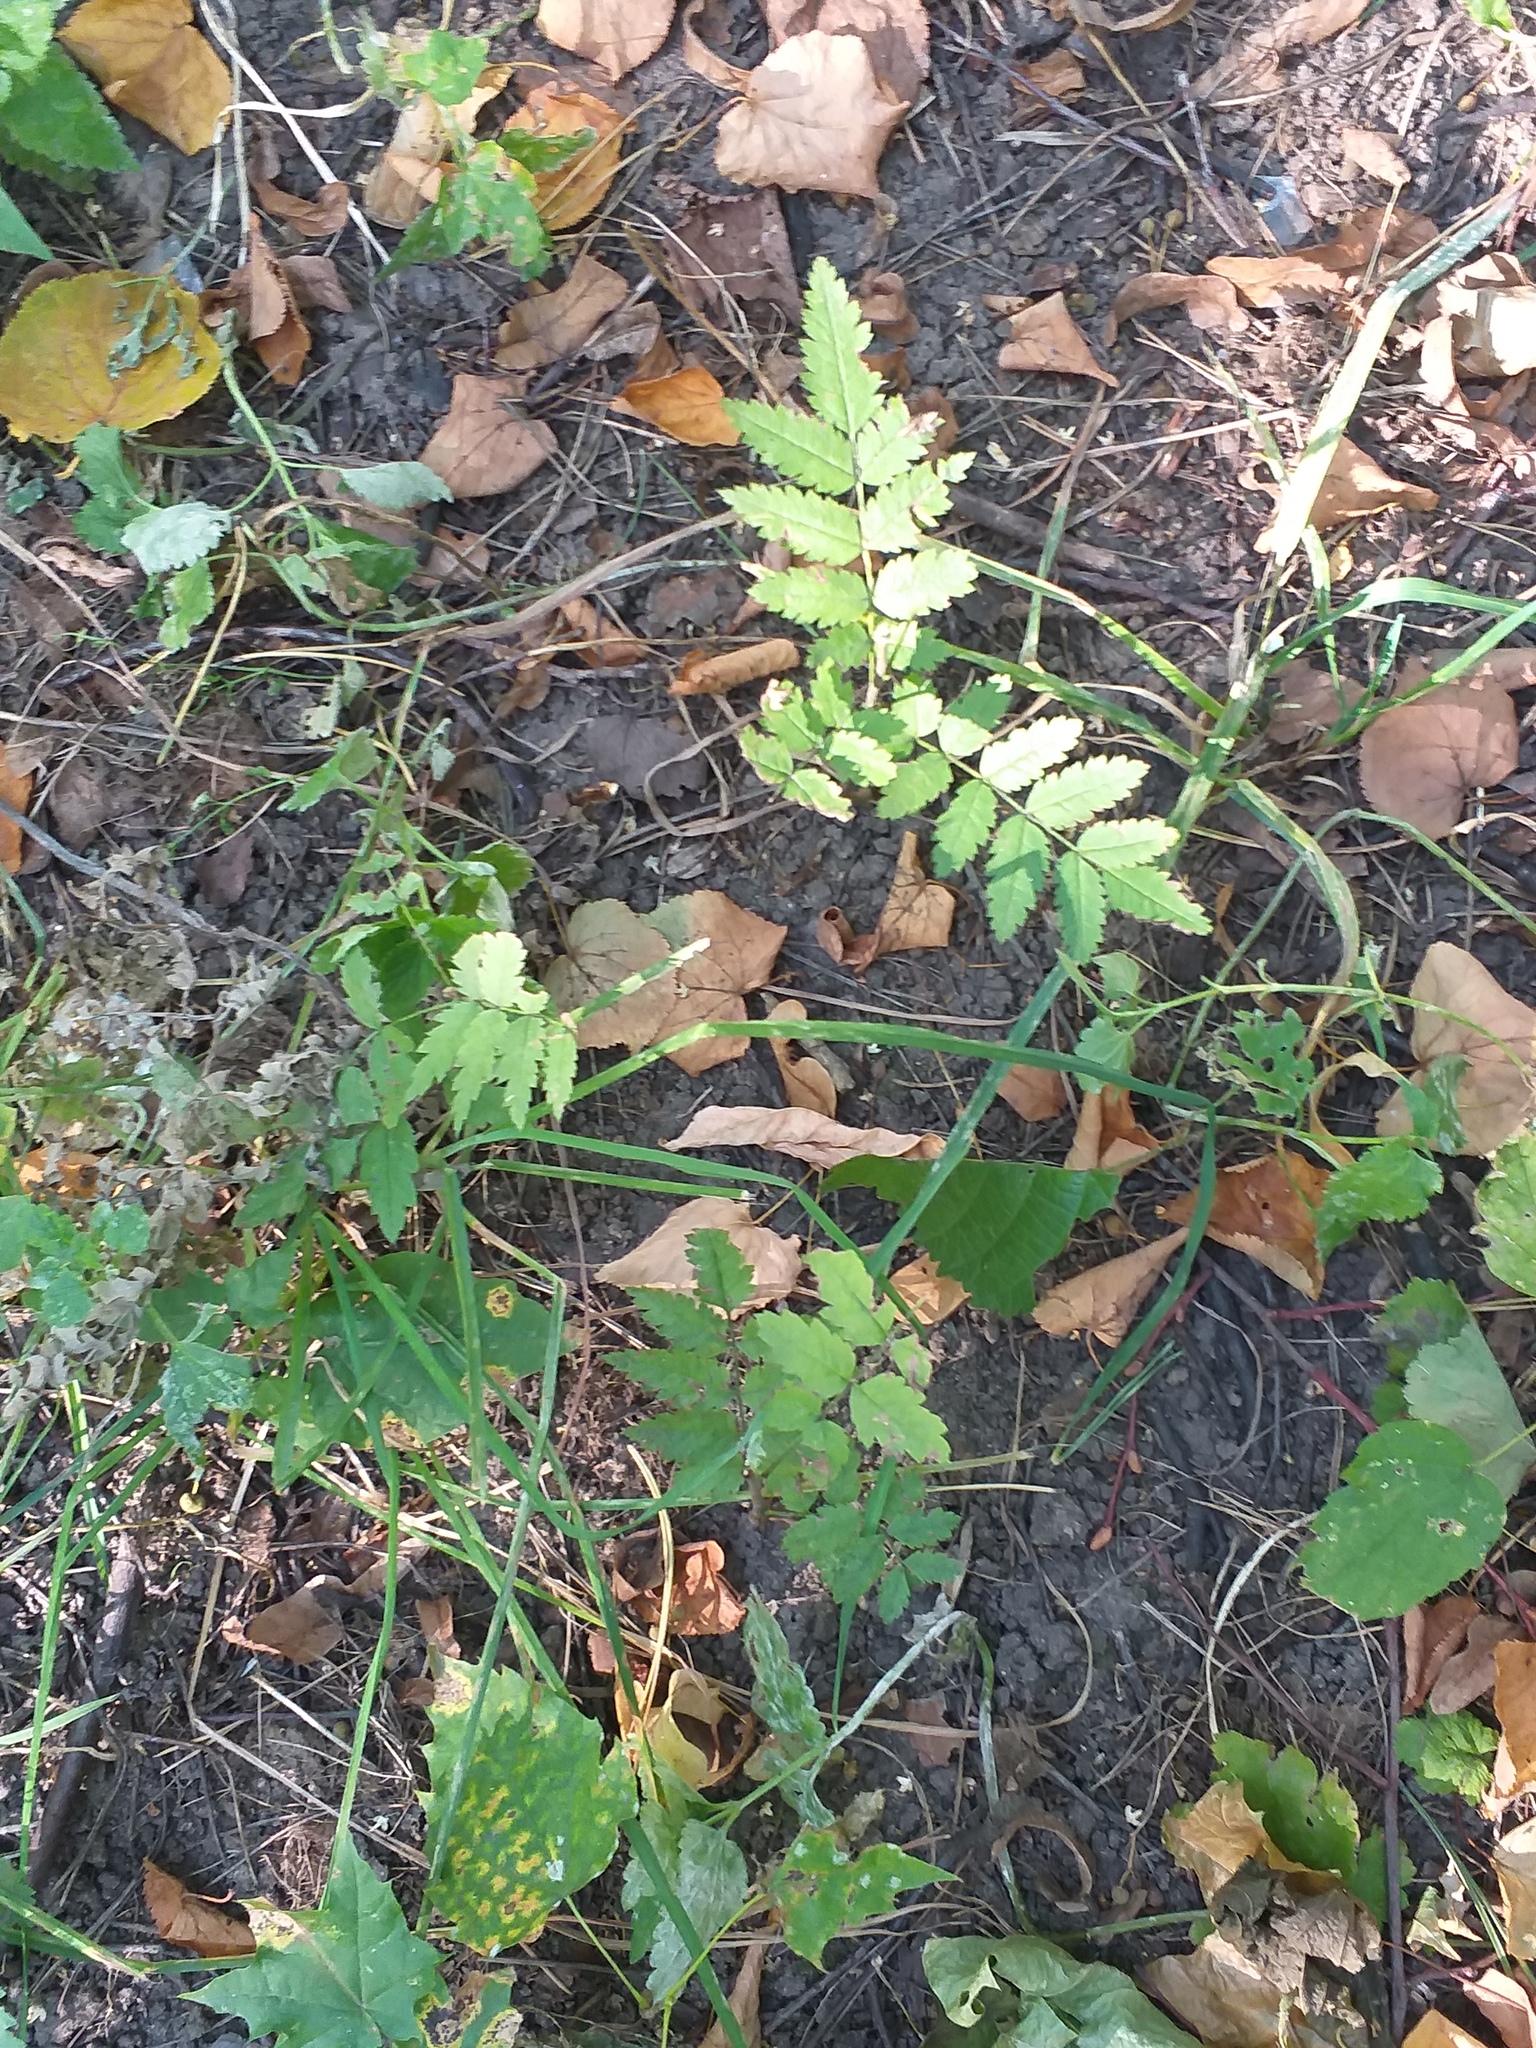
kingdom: Plantae
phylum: Tracheophyta
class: Magnoliopsida
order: Rosales
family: Rosaceae
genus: Sorbus
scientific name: Sorbus aucuparia
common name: Rowan
